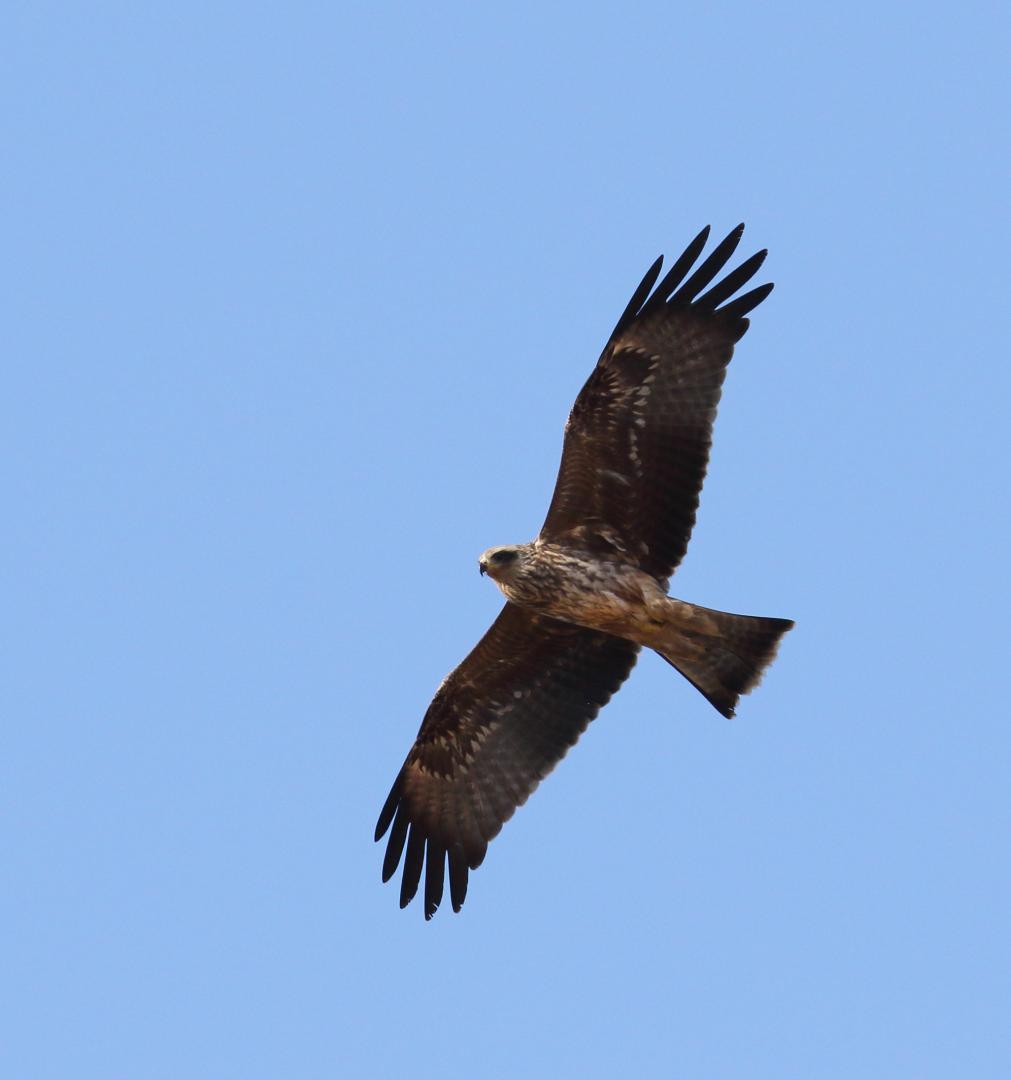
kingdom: Animalia
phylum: Chordata
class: Aves
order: Accipitriformes
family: Accipitridae
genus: Milvus
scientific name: Milvus migrans
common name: Black kite
